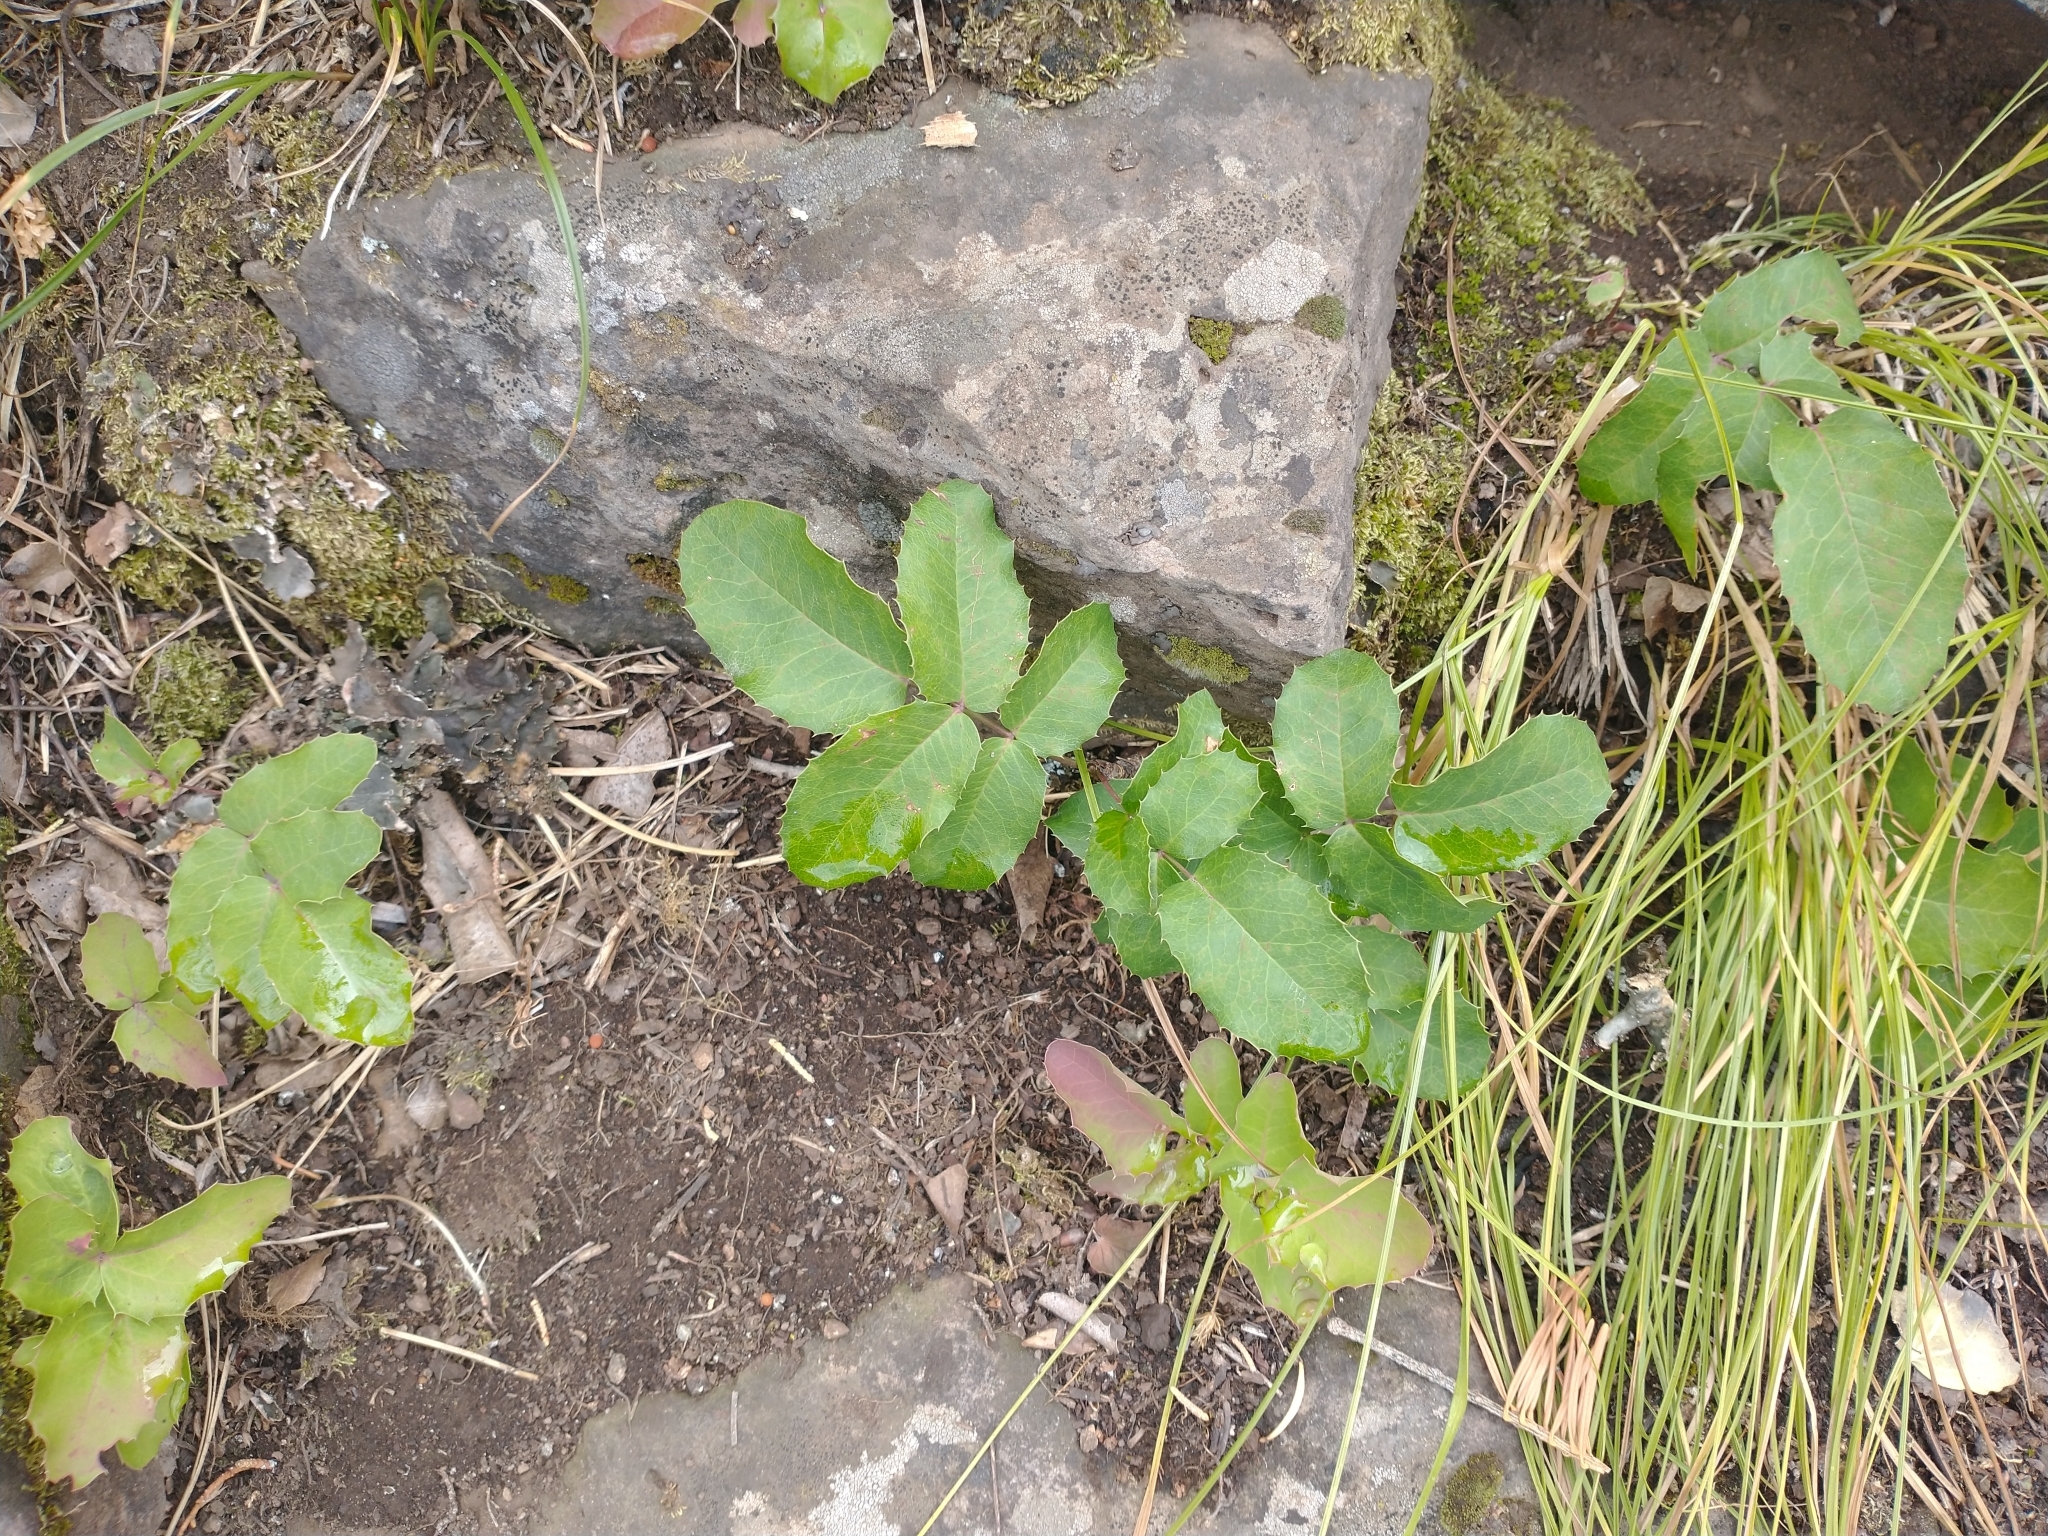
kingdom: Plantae
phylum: Tracheophyta
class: Magnoliopsida
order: Ranunculales
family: Berberidaceae
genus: Mahonia
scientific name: Mahonia repens
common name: Creeping oregon-grape
